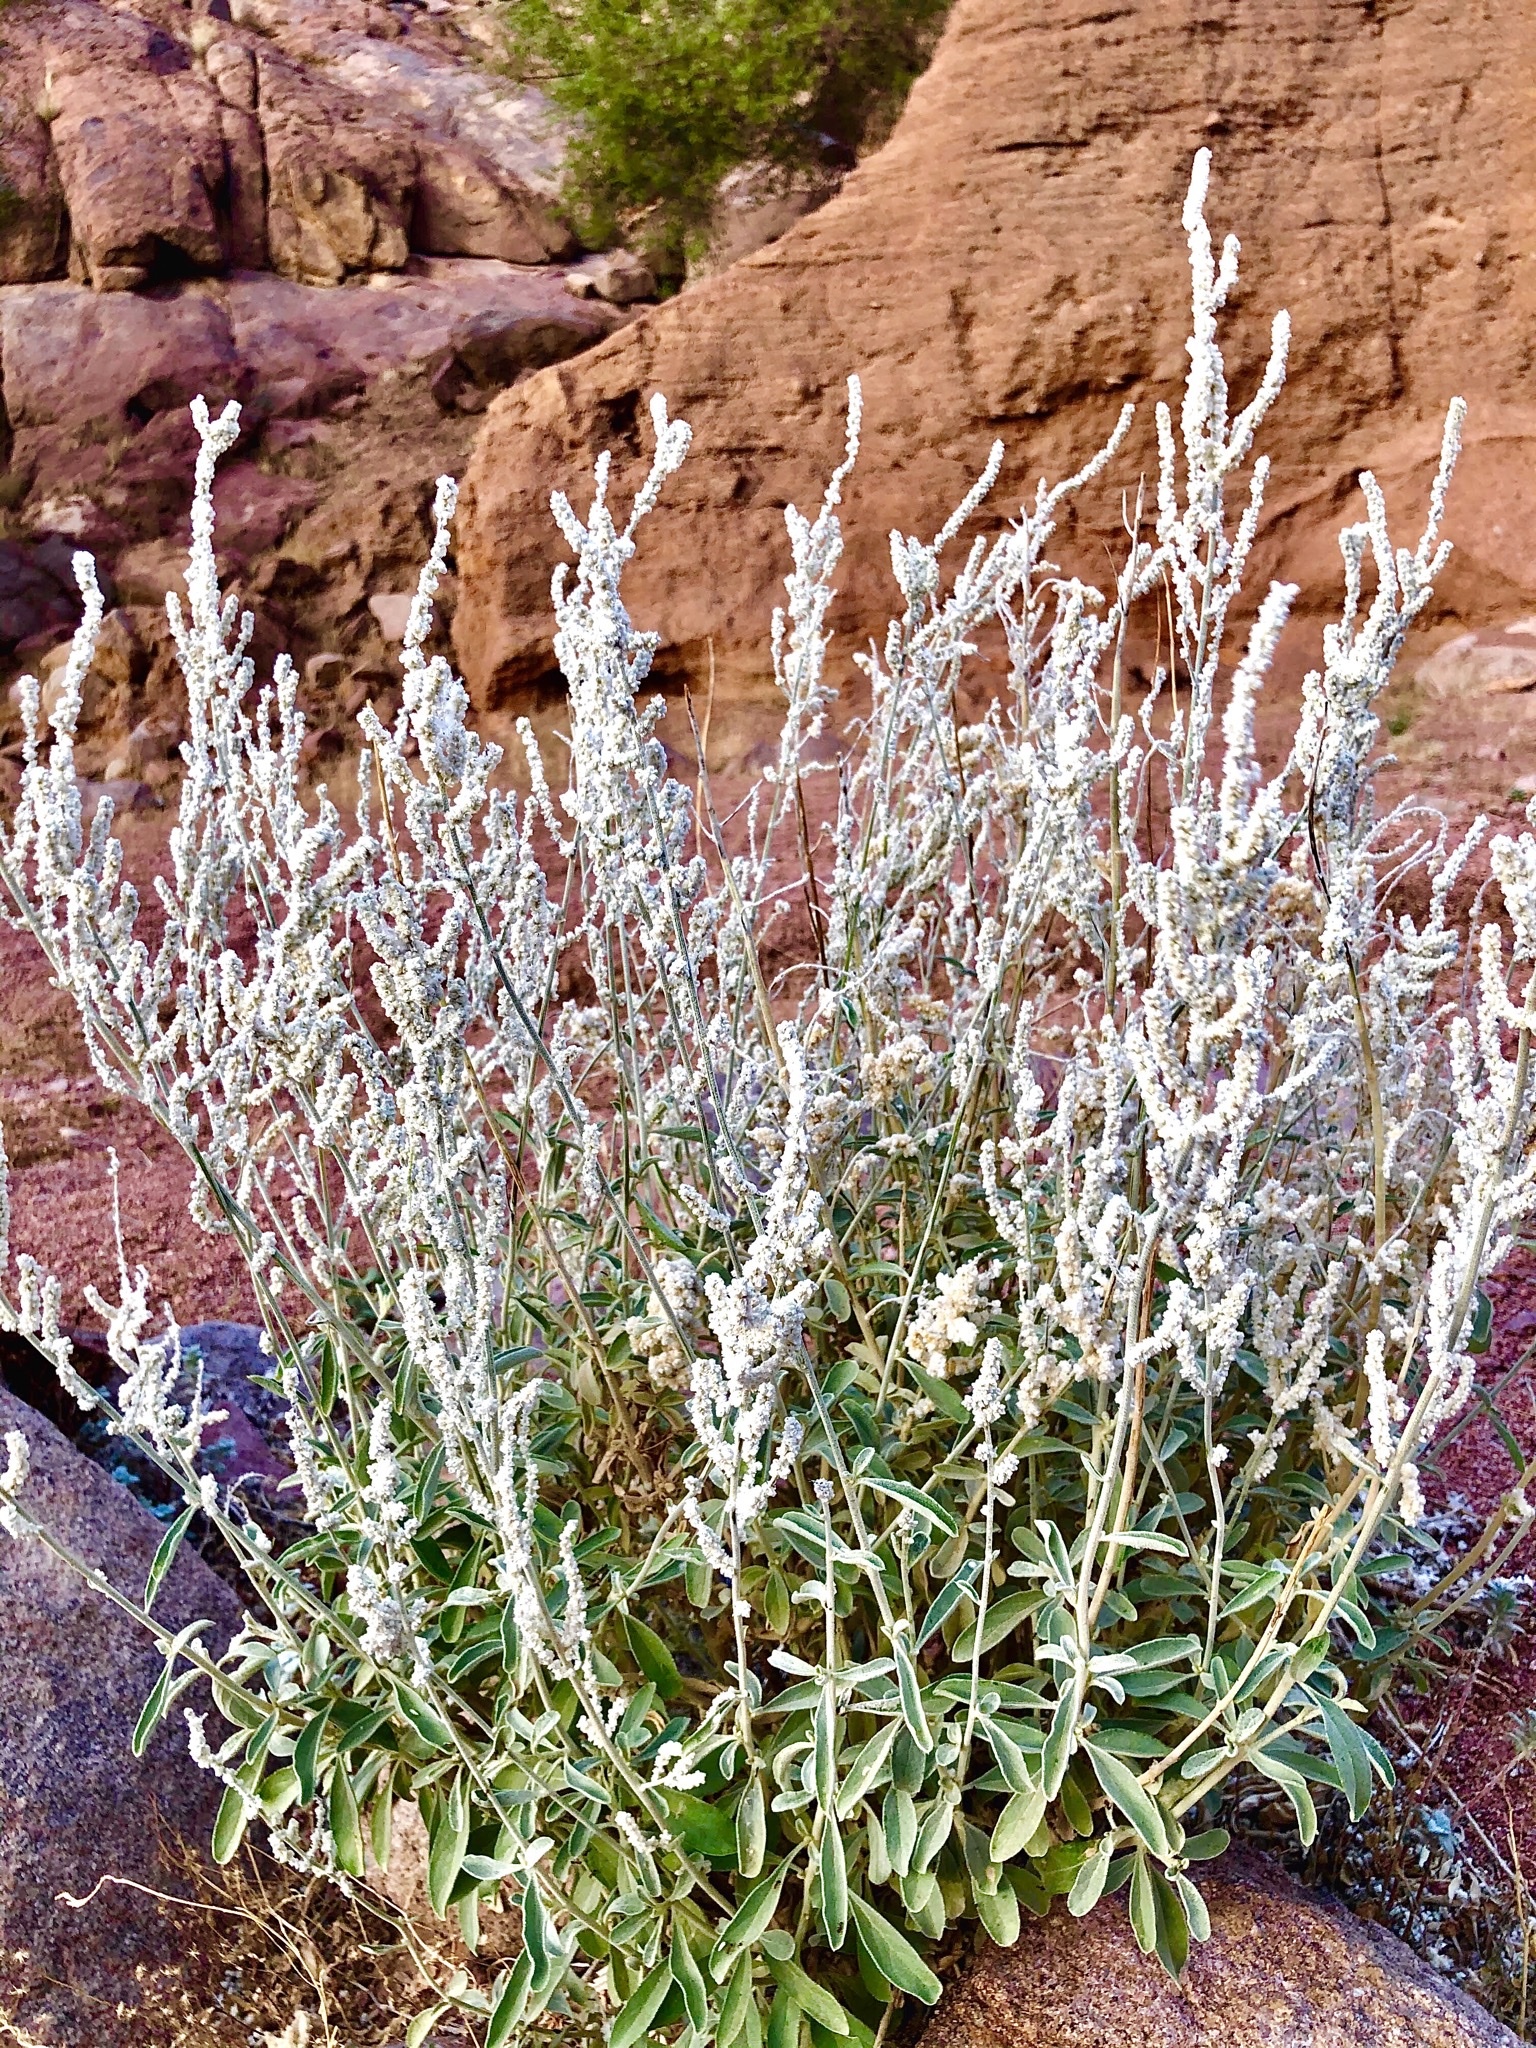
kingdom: Plantae
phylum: Tracheophyta
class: Magnoliopsida
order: Caryophyllales
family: Amaranthaceae
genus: Aerva
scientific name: Aerva javanica
